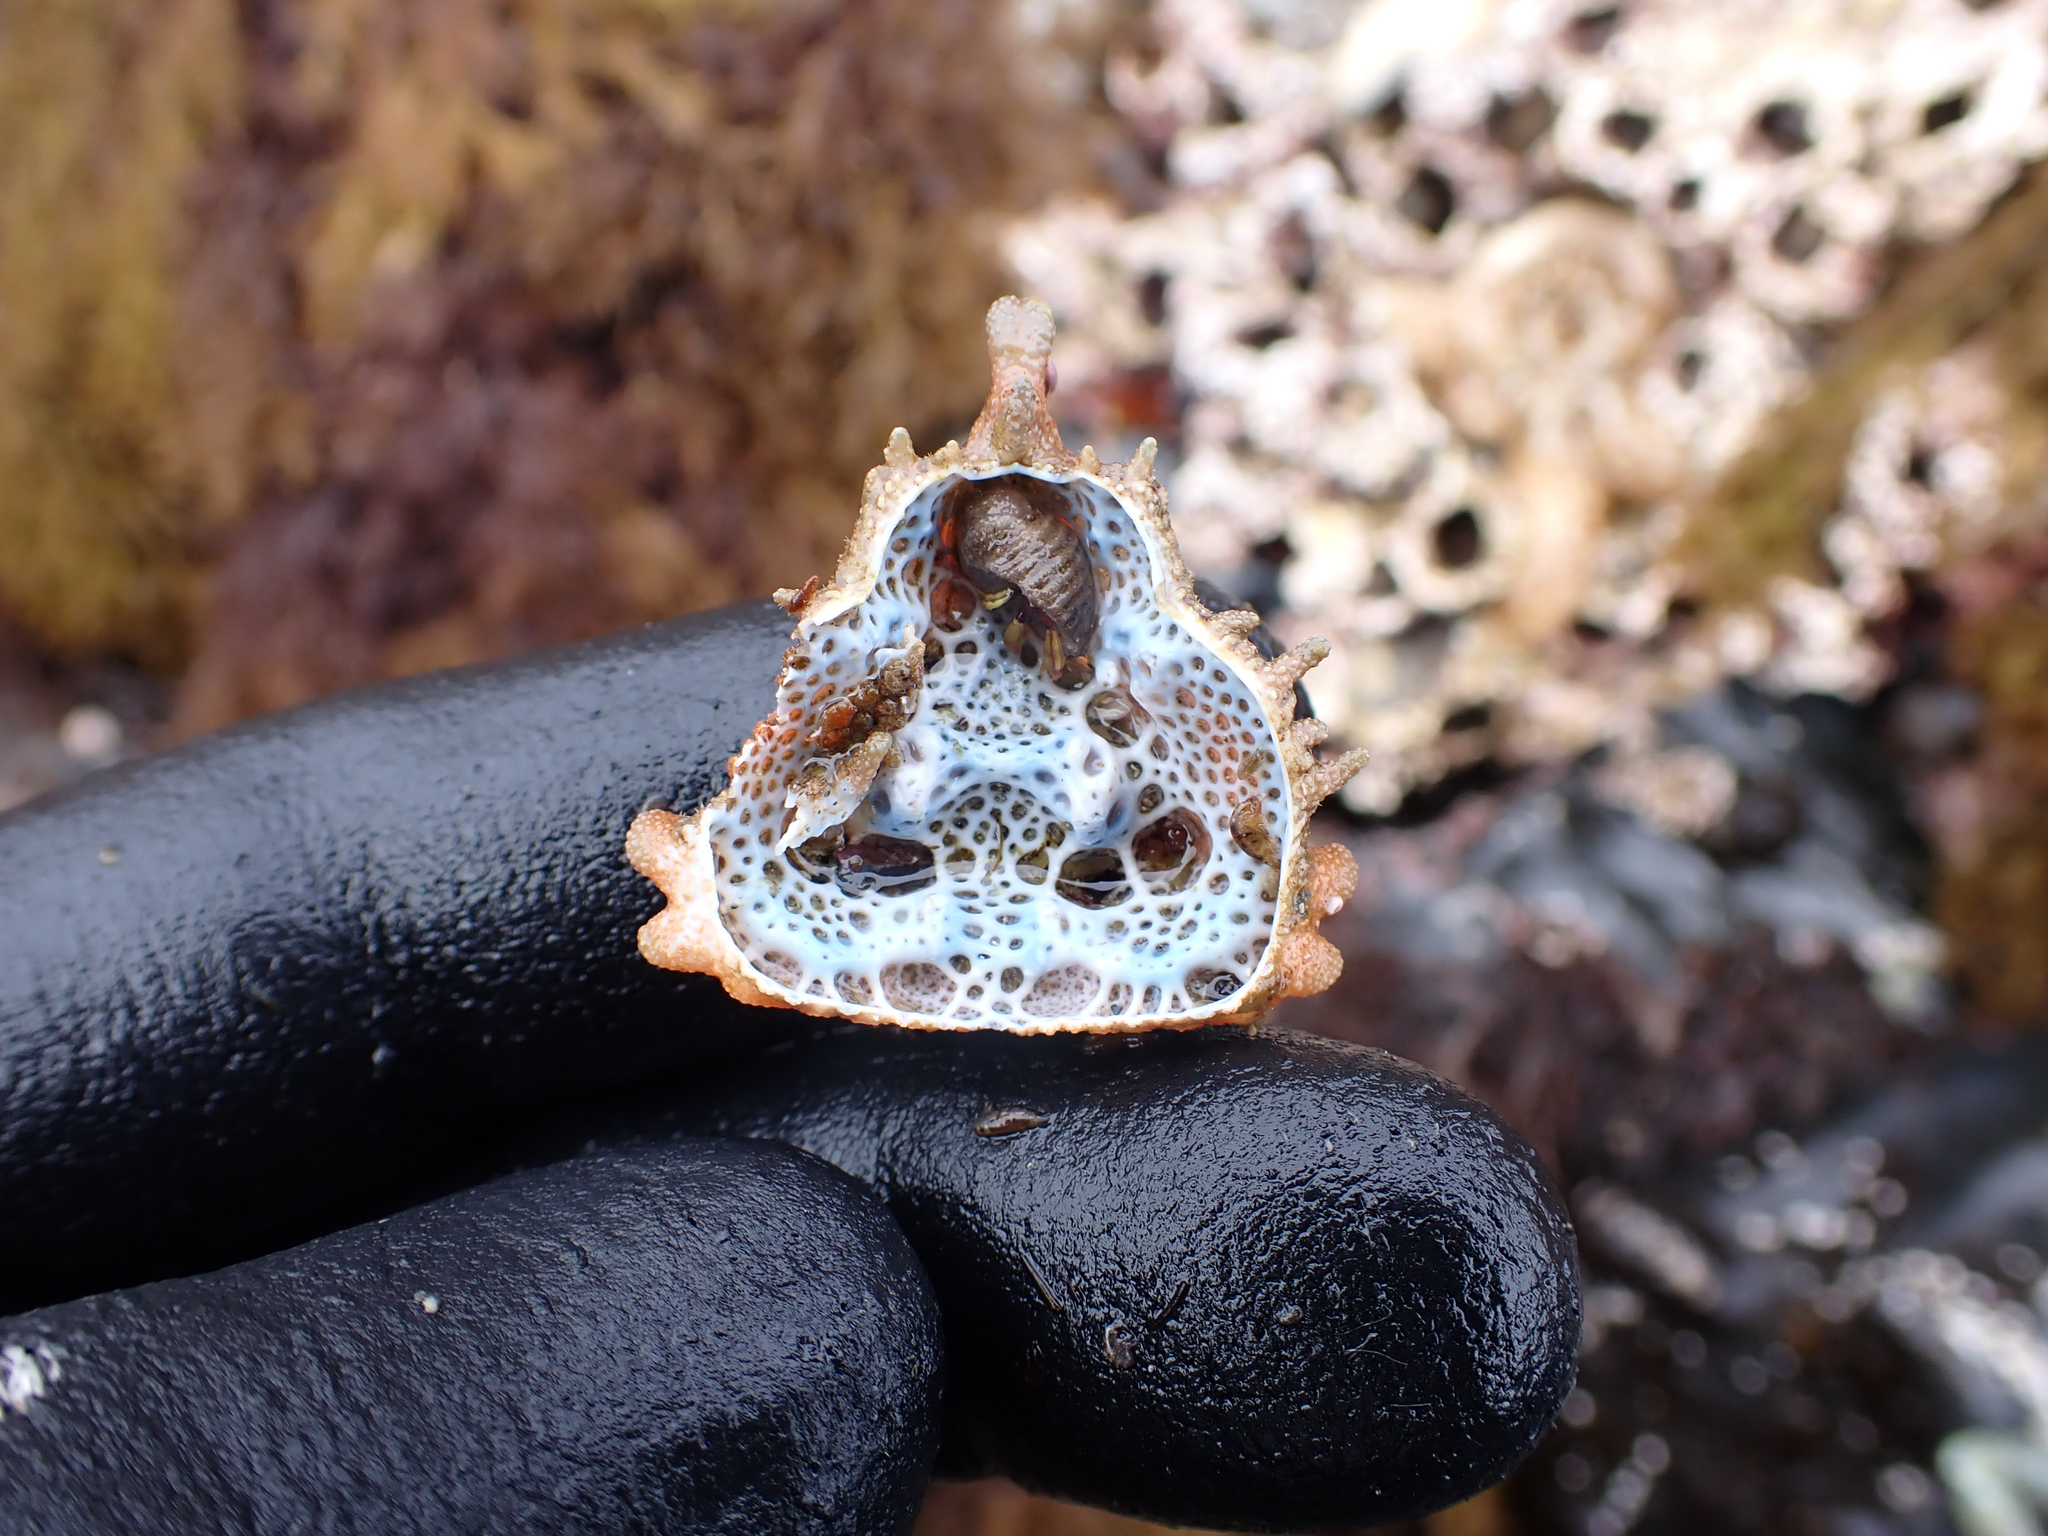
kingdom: Animalia
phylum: Arthropoda
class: Malacostraca
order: Decapoda
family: Lithodidae
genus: Phyllolithodes
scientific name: Phyllolithodes papillosus
